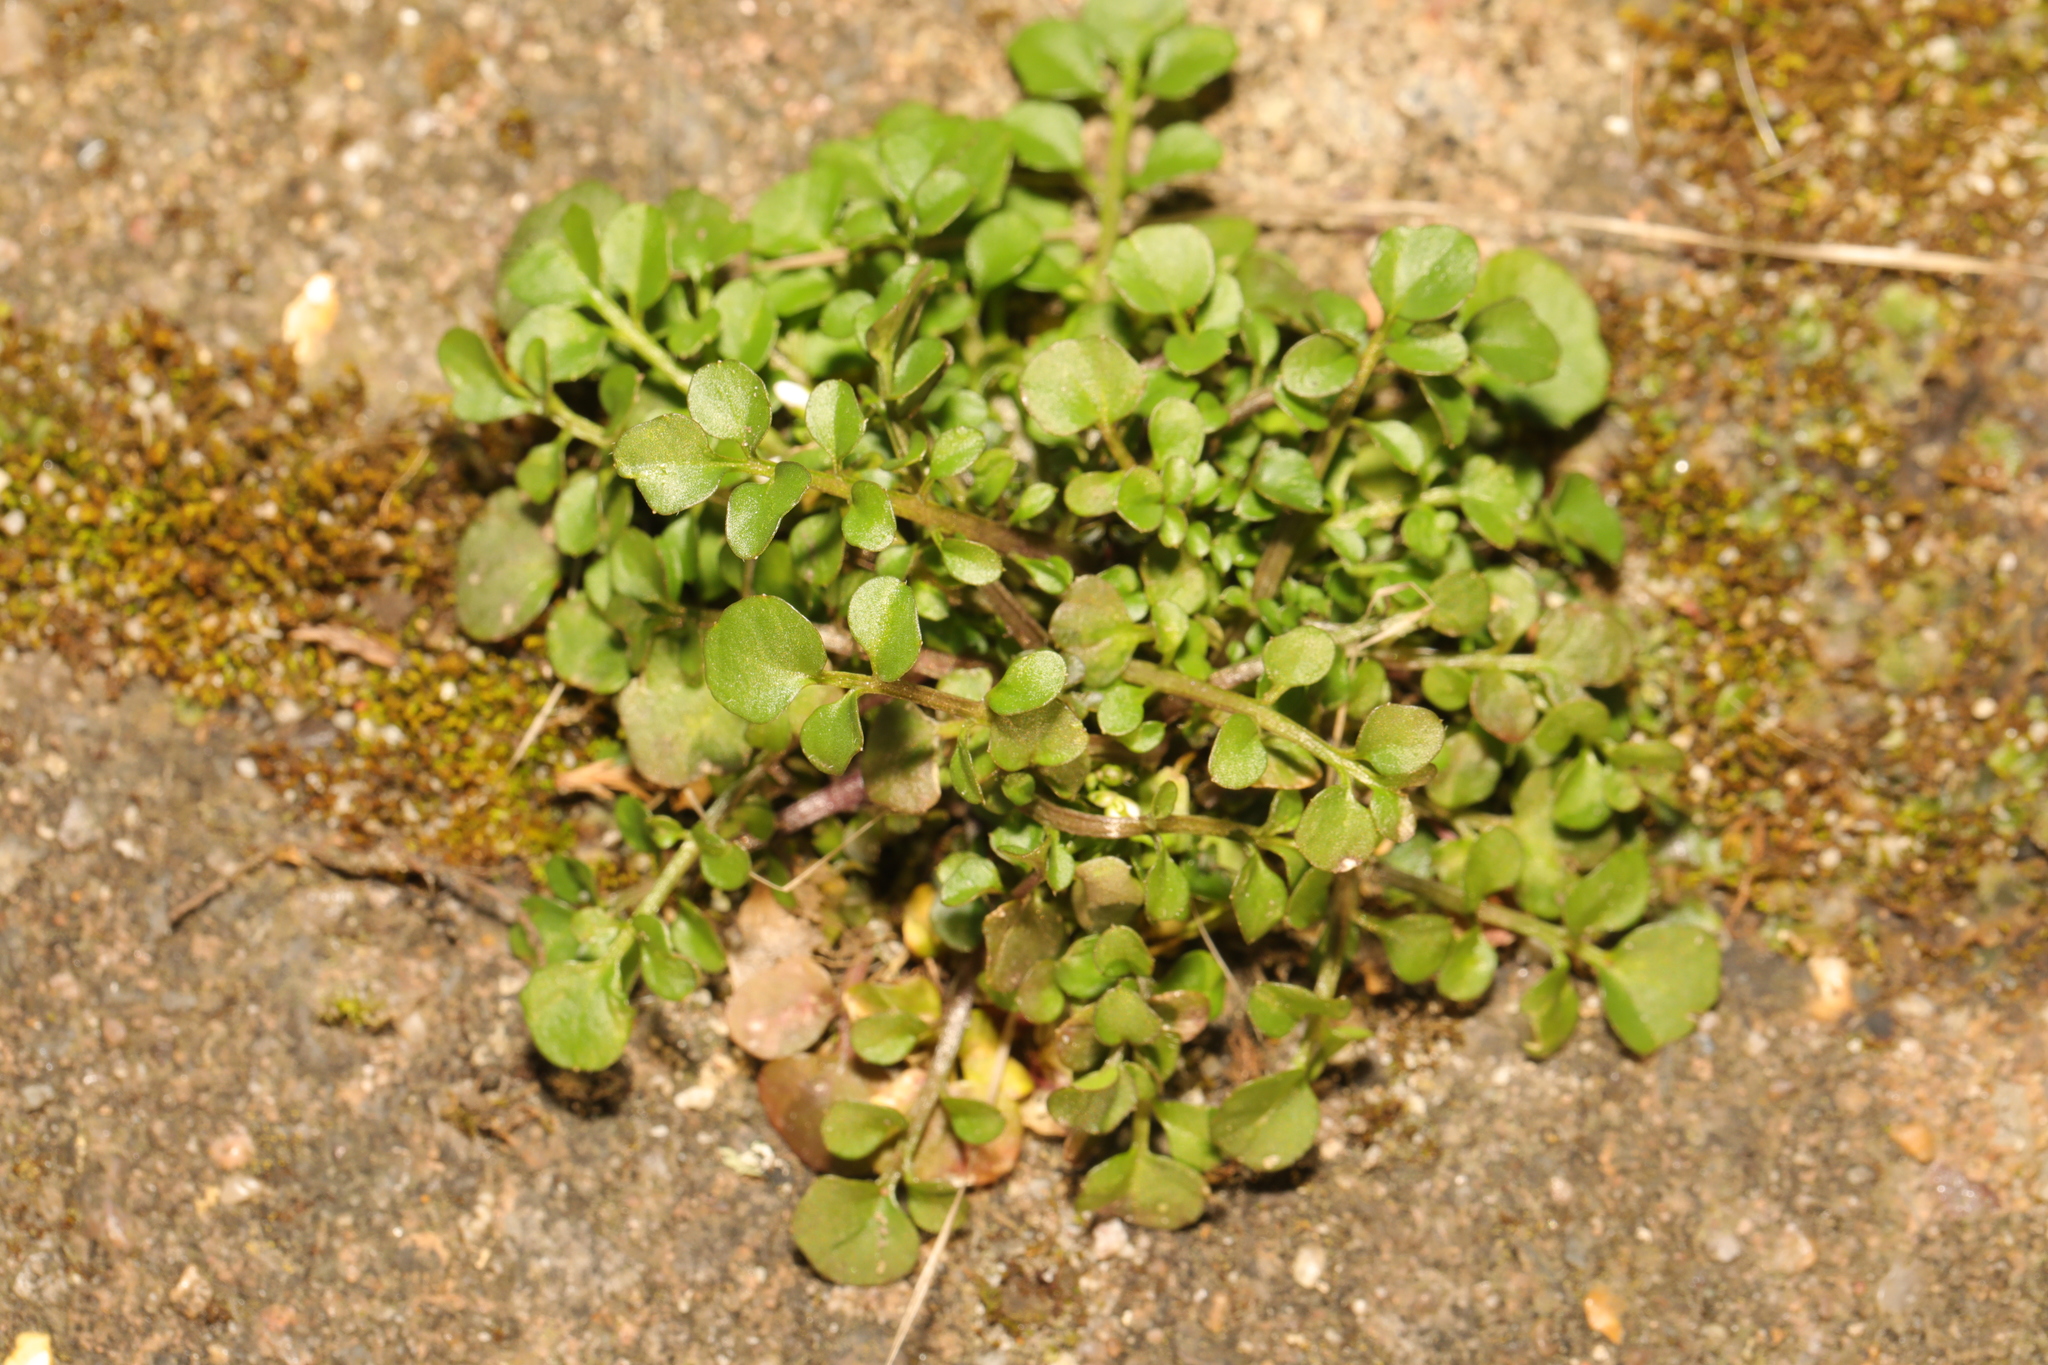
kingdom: Plantae
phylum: Tracheophyta
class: Magnoliopsida
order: Brassicales
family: Brassicaceae
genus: Cardamine
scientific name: Cardamine hirsuta
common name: Hairy bittercress
